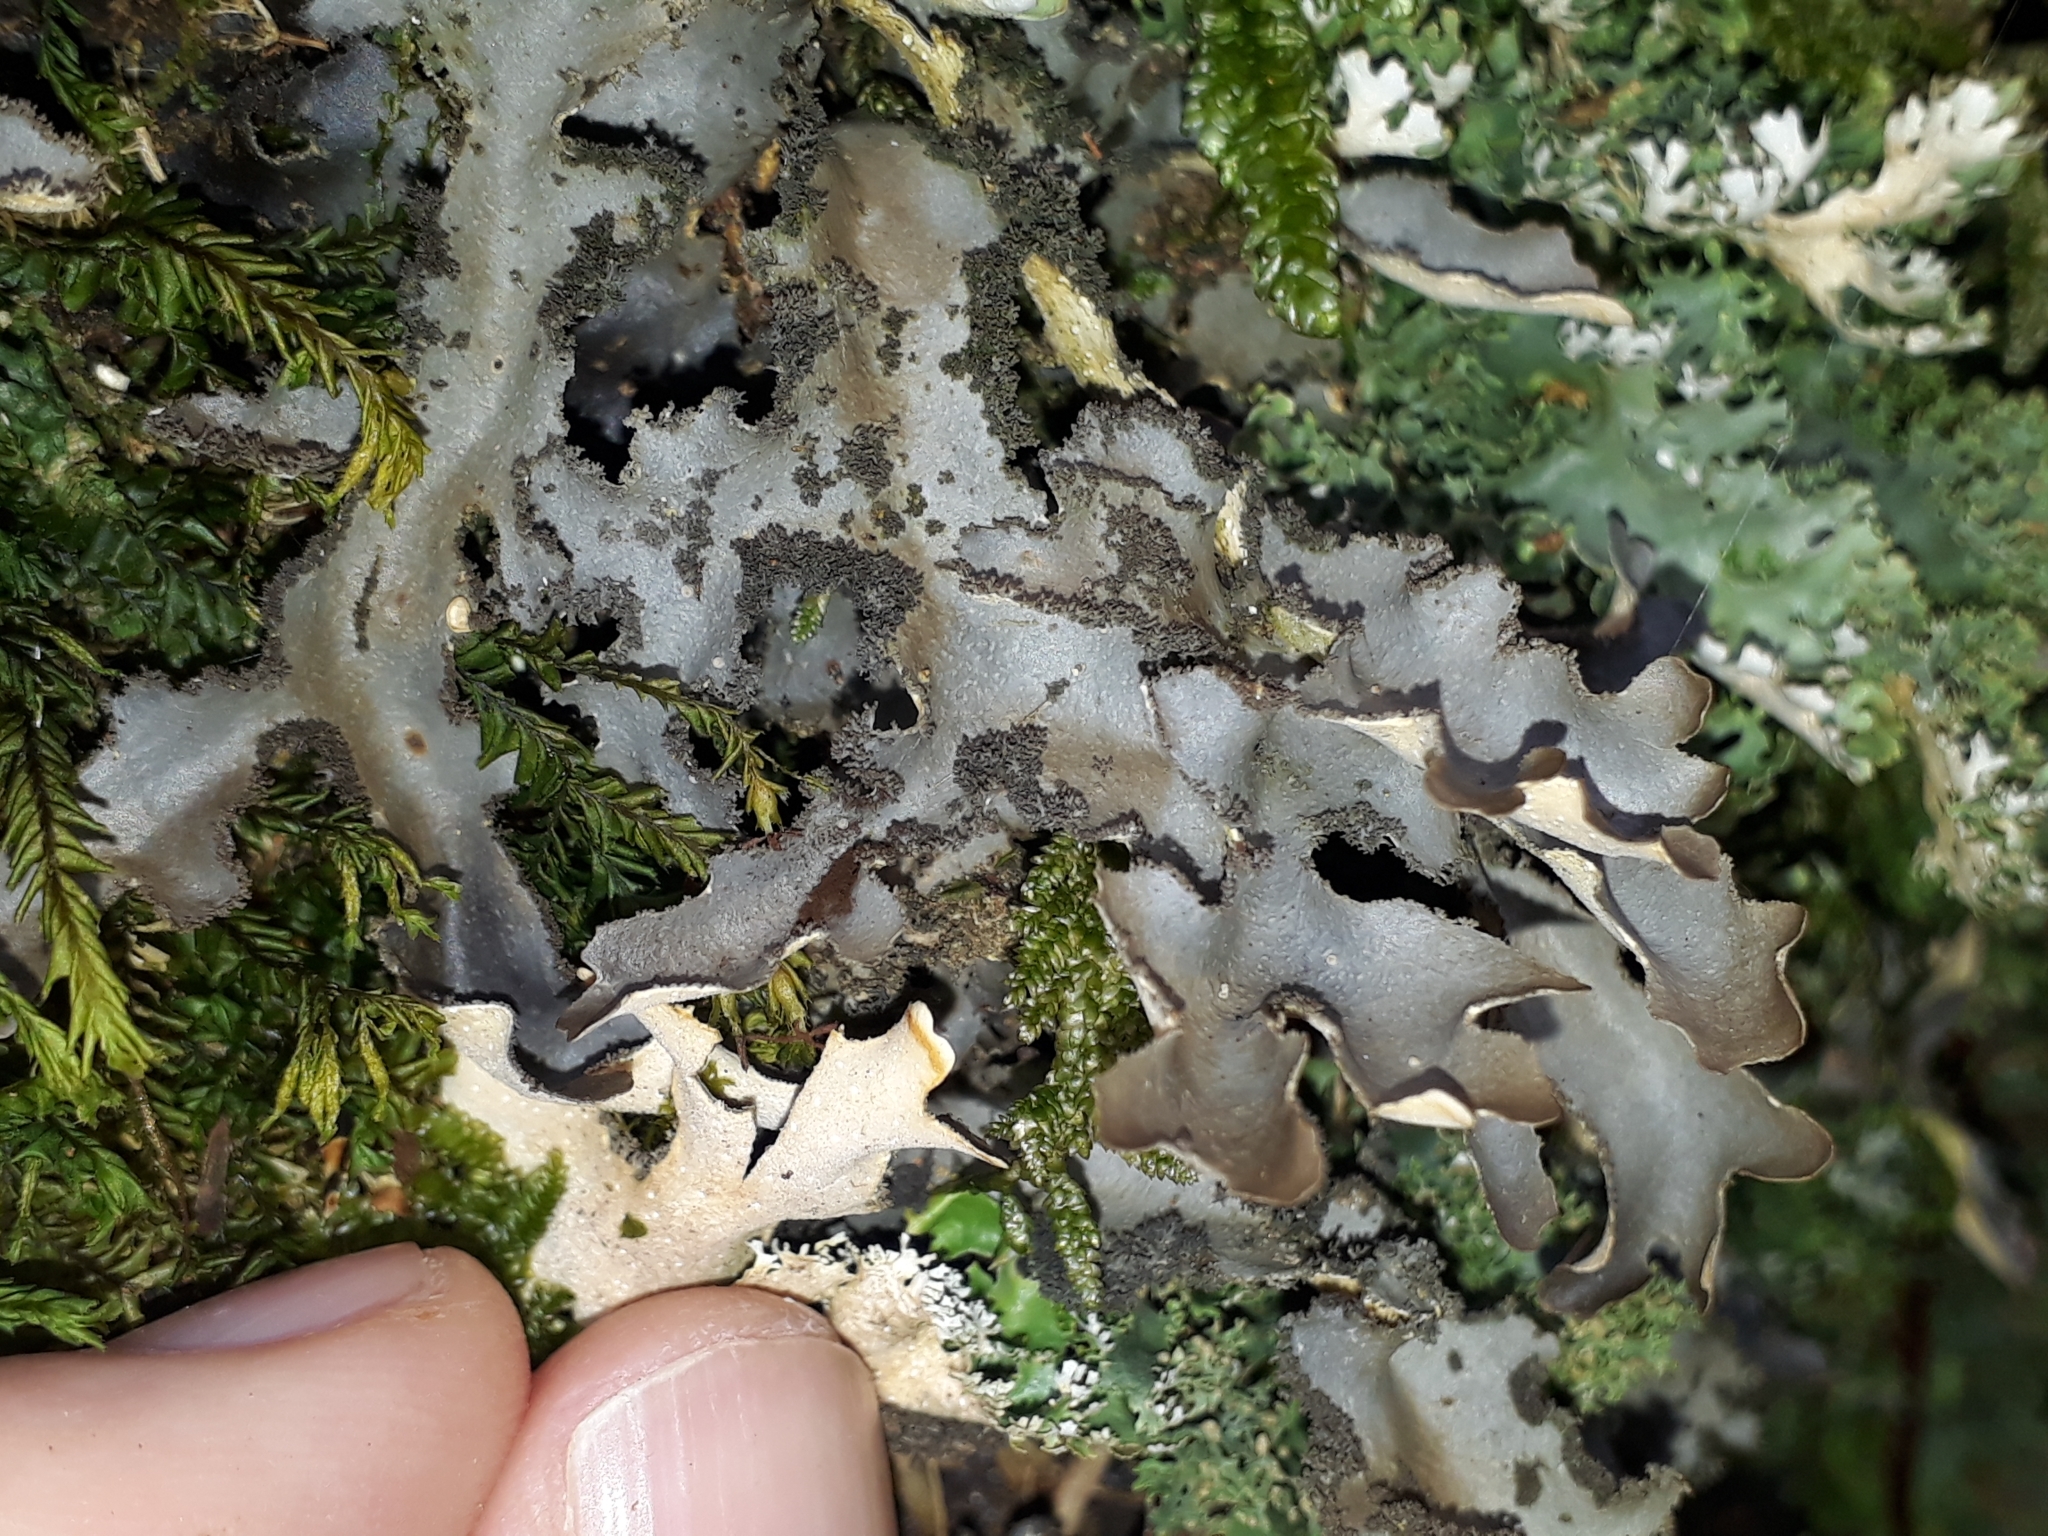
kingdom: Fungi
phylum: Ascomycota
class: Lecanoromycetes
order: Peltigerales
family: Lobariaceae
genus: Pseudocyphellaria
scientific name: Pseudocyphellaria dissimilis
